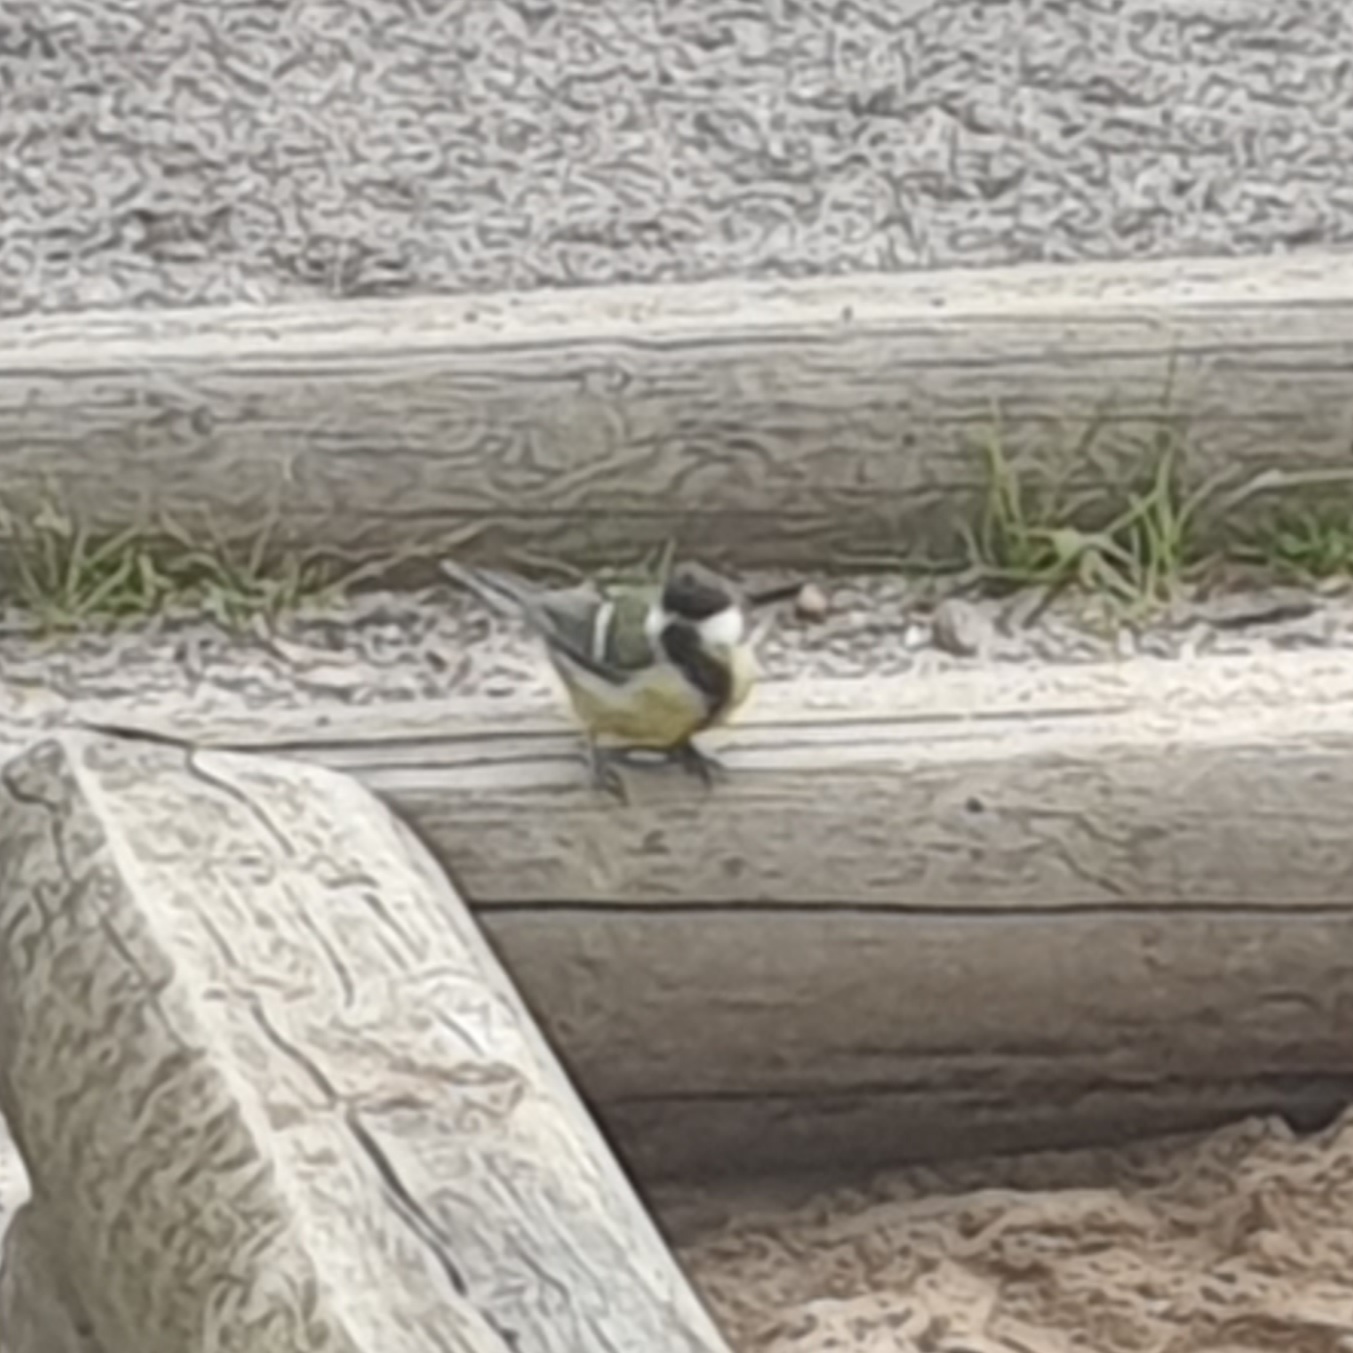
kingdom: Animalia
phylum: Chordata
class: Aves
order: Passeriformes
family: Paridae
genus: Parus
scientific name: Parus major
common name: Great tit
